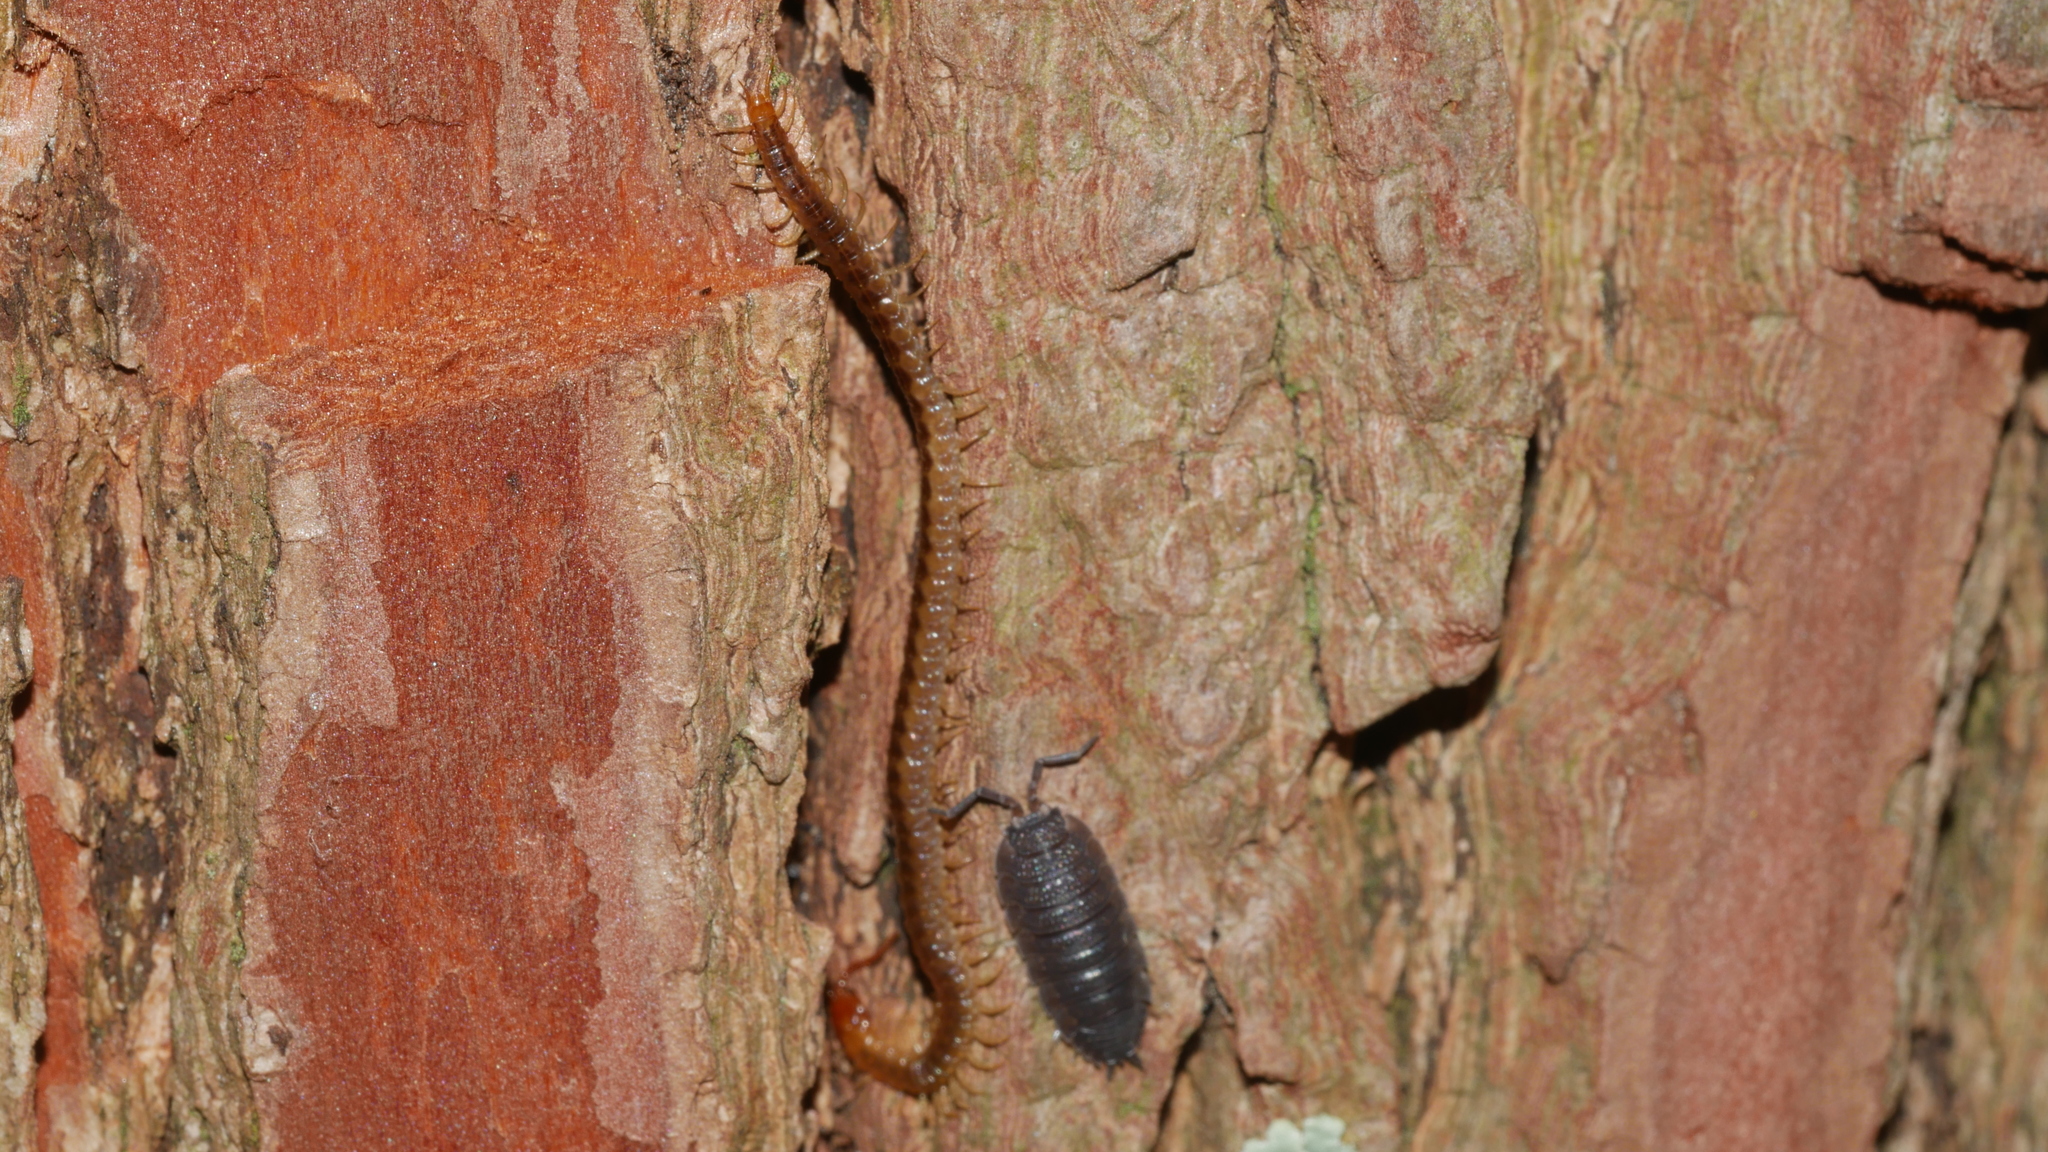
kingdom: Animalia
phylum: Arthropoda
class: Malacostraca
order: Isopoda
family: Porcellionidae
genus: Porcellio
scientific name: Porcellio scaber
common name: Common rough woodlouse
